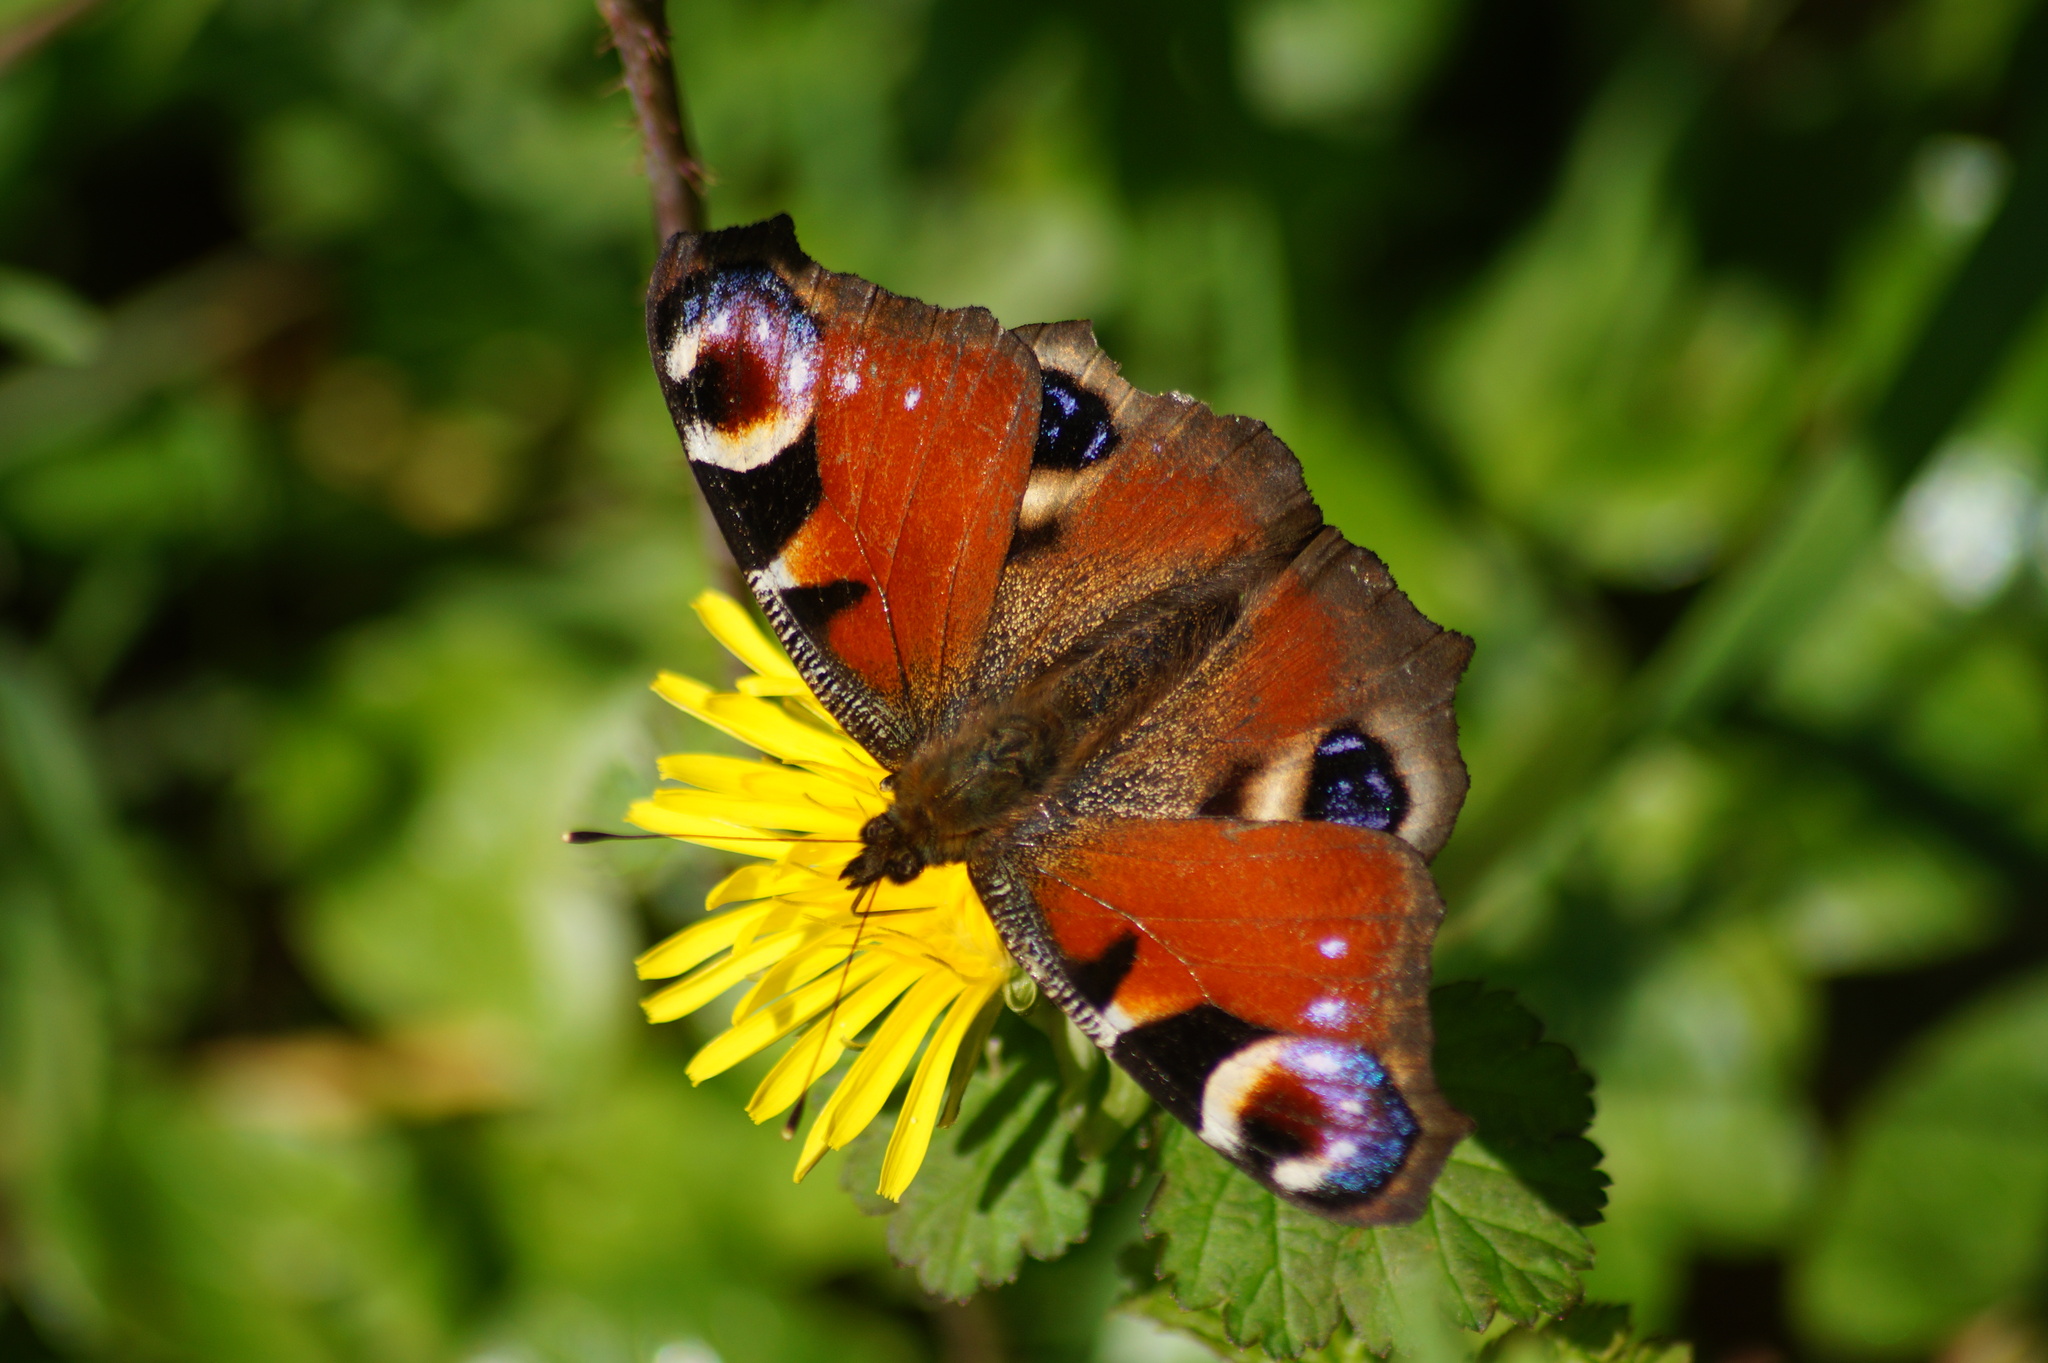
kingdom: Animalia
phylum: Arthropoda
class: Insecta
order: Lepidoptera
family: Nymphalidae
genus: Aglais
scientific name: Aglais io
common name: Peacock
